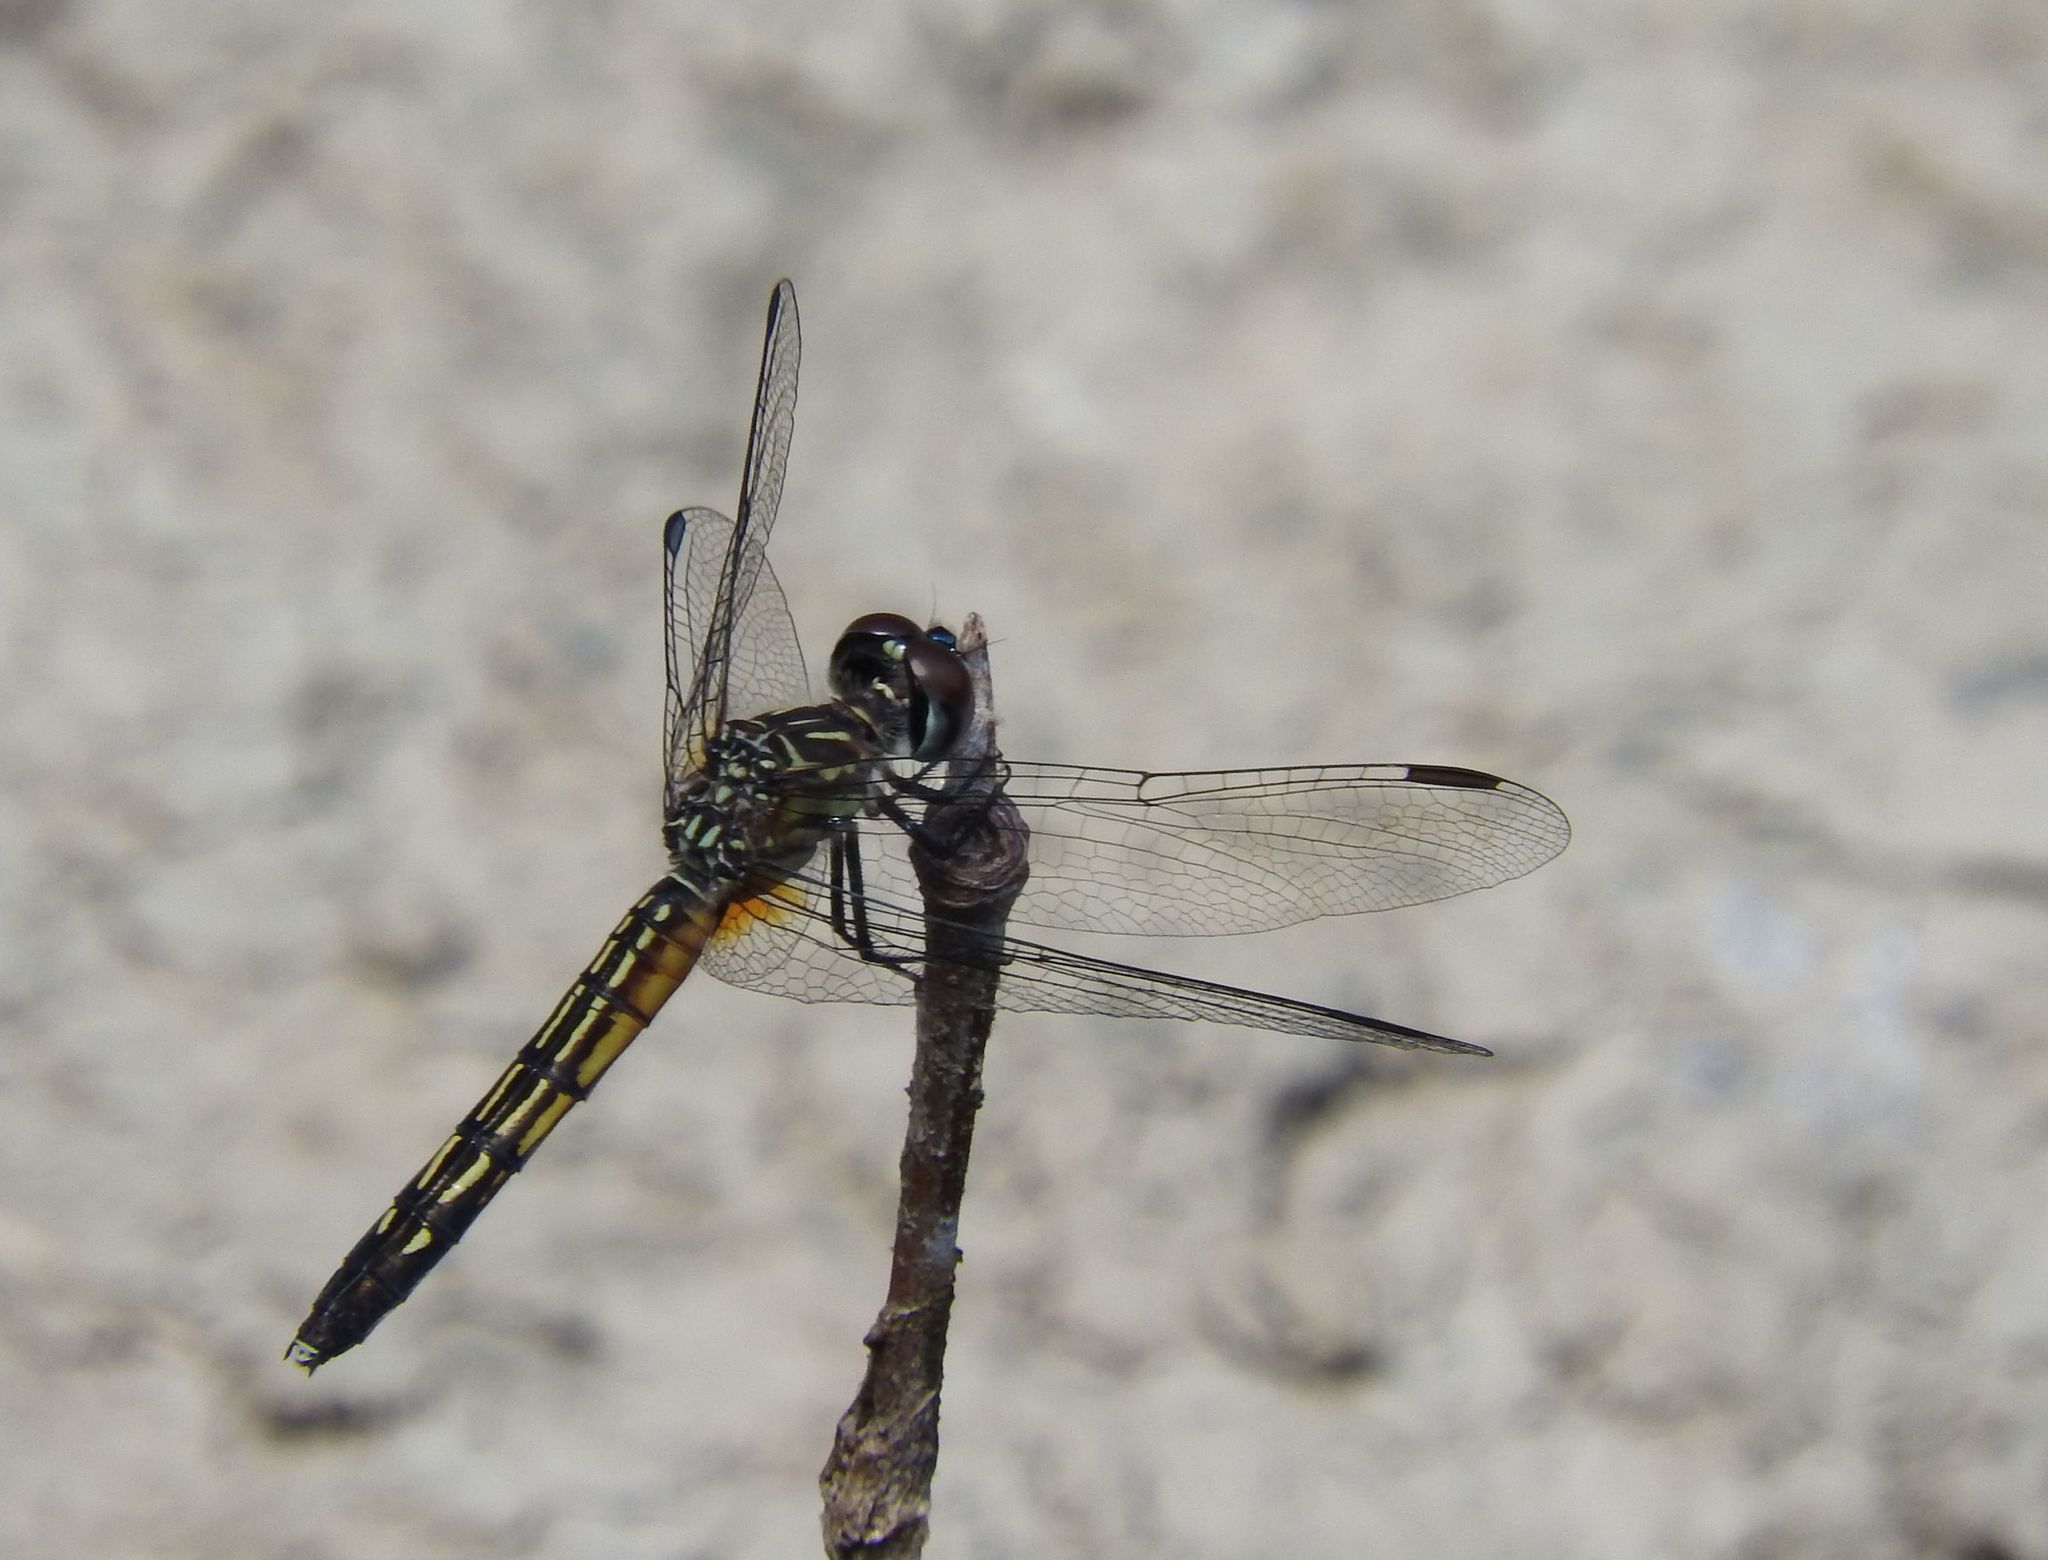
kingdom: Animalia
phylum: Arthropoda
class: Insecta
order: Odonata
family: Libellulidae
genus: Pachydiplax
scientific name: Pachydiplax longipennis
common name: Blue dasher
